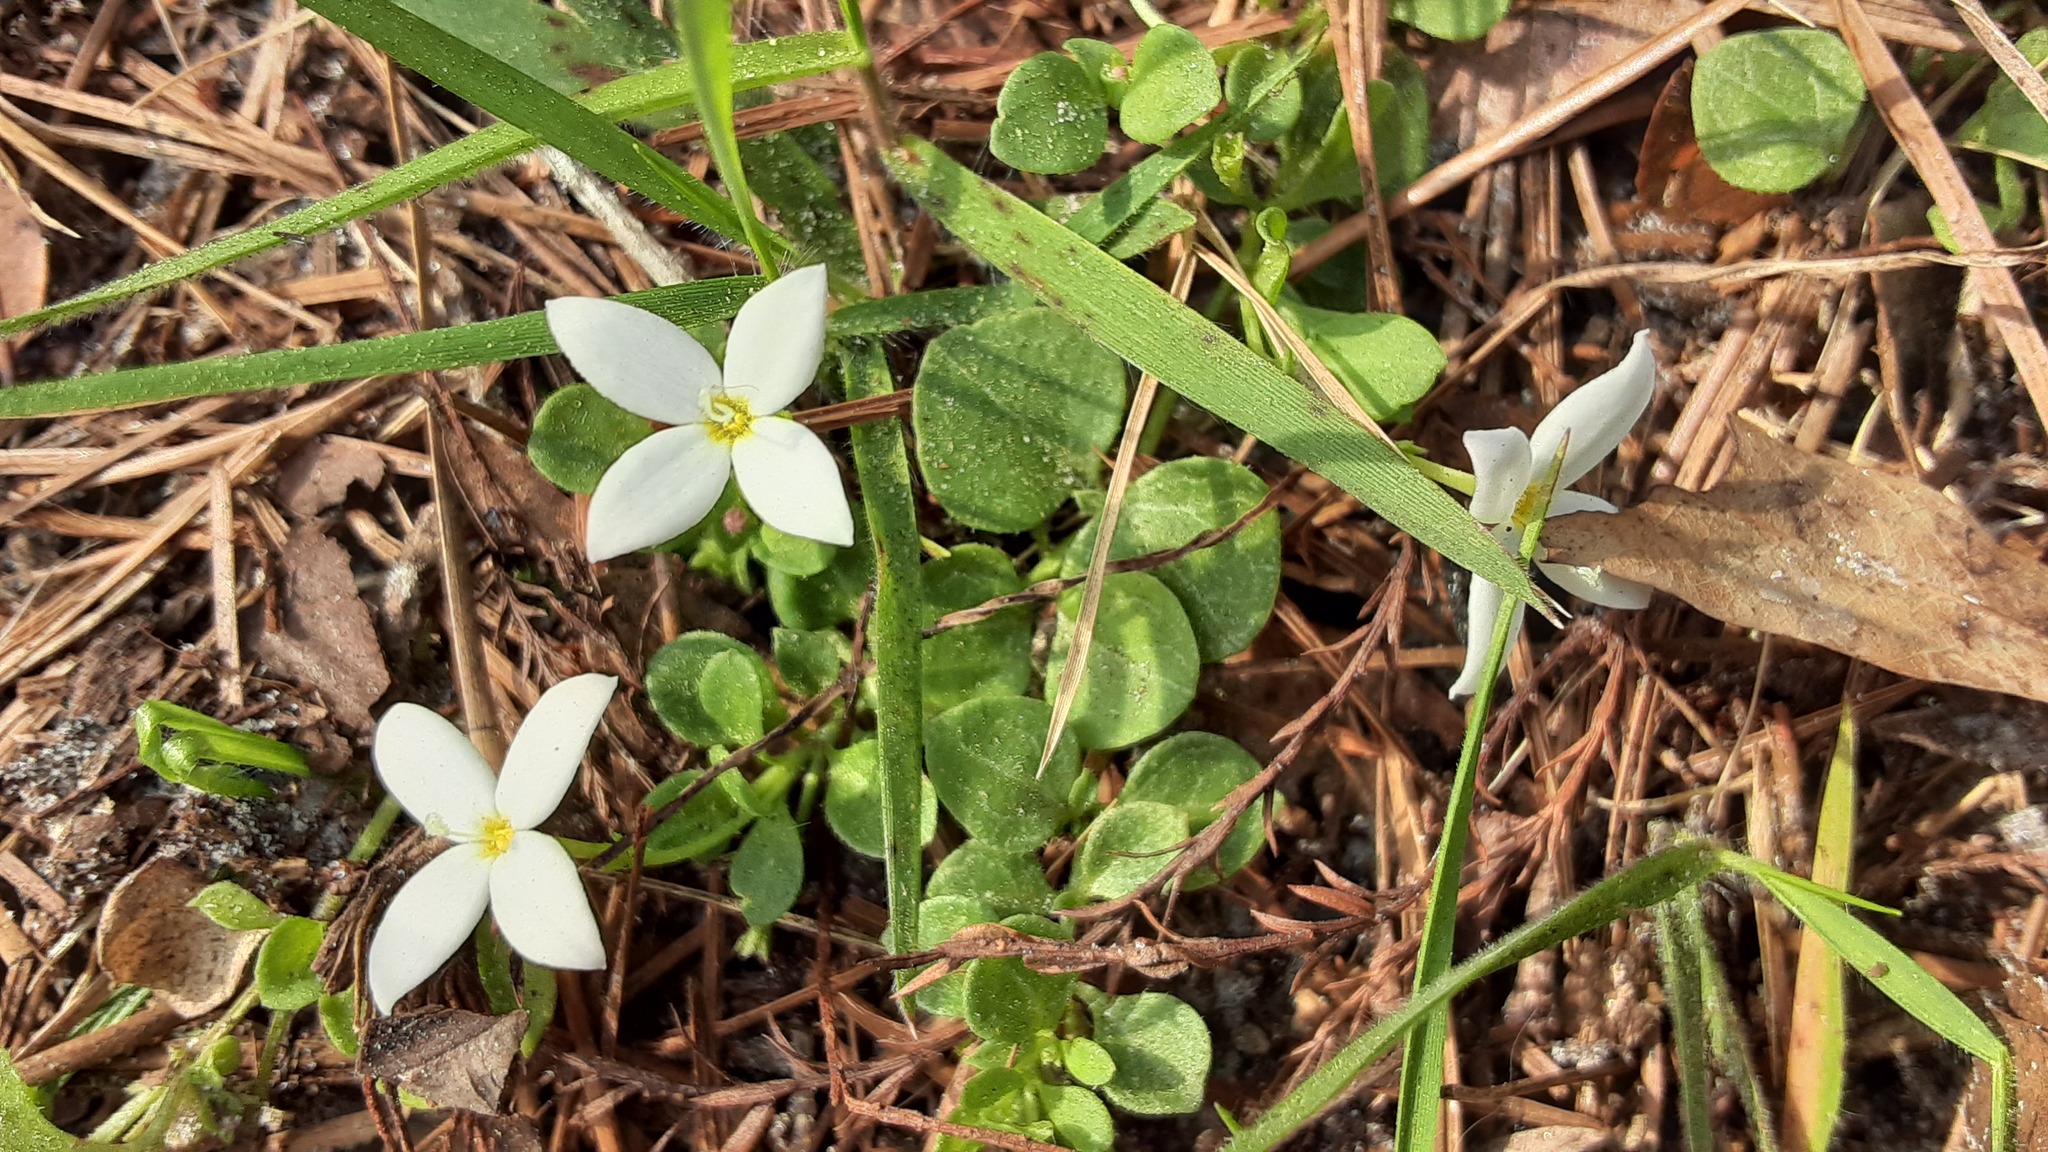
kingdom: Plantae
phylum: Tracheophyta
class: Magnoliopsida
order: Gentianales
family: Rubiaceae
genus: Houstonia
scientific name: Houstonia procumbens
